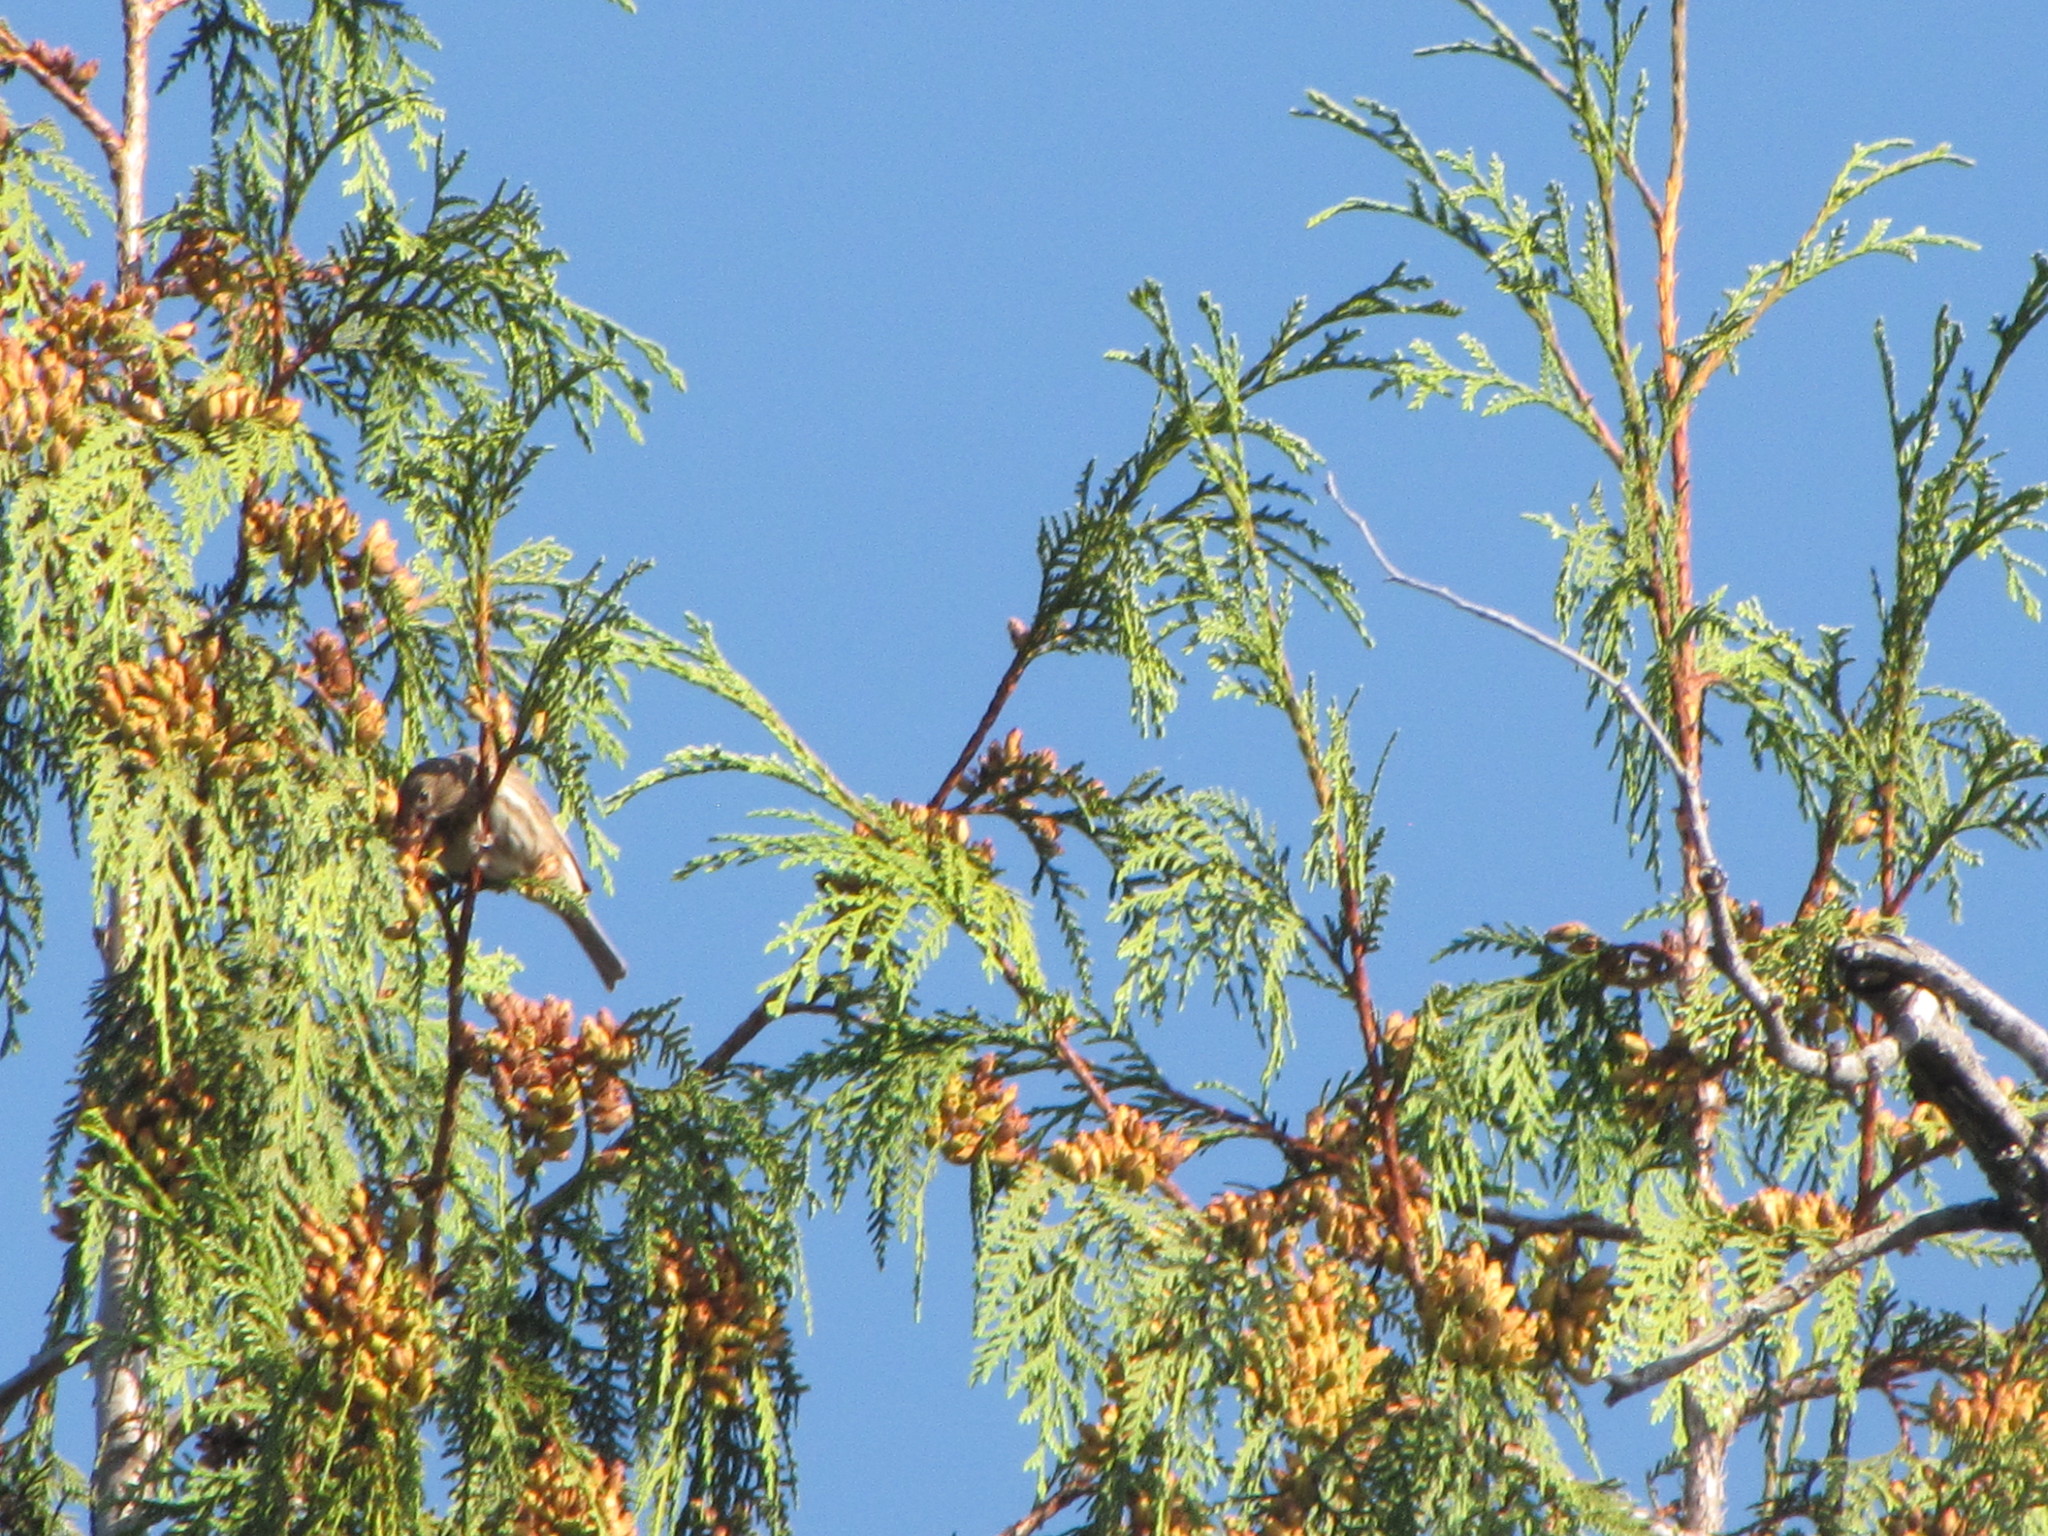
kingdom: Animalia
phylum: Chordata
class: Aves
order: Passeriformes
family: Fringillidae
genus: Haemorhous
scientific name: Haemorhous mexicanus
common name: House finch
